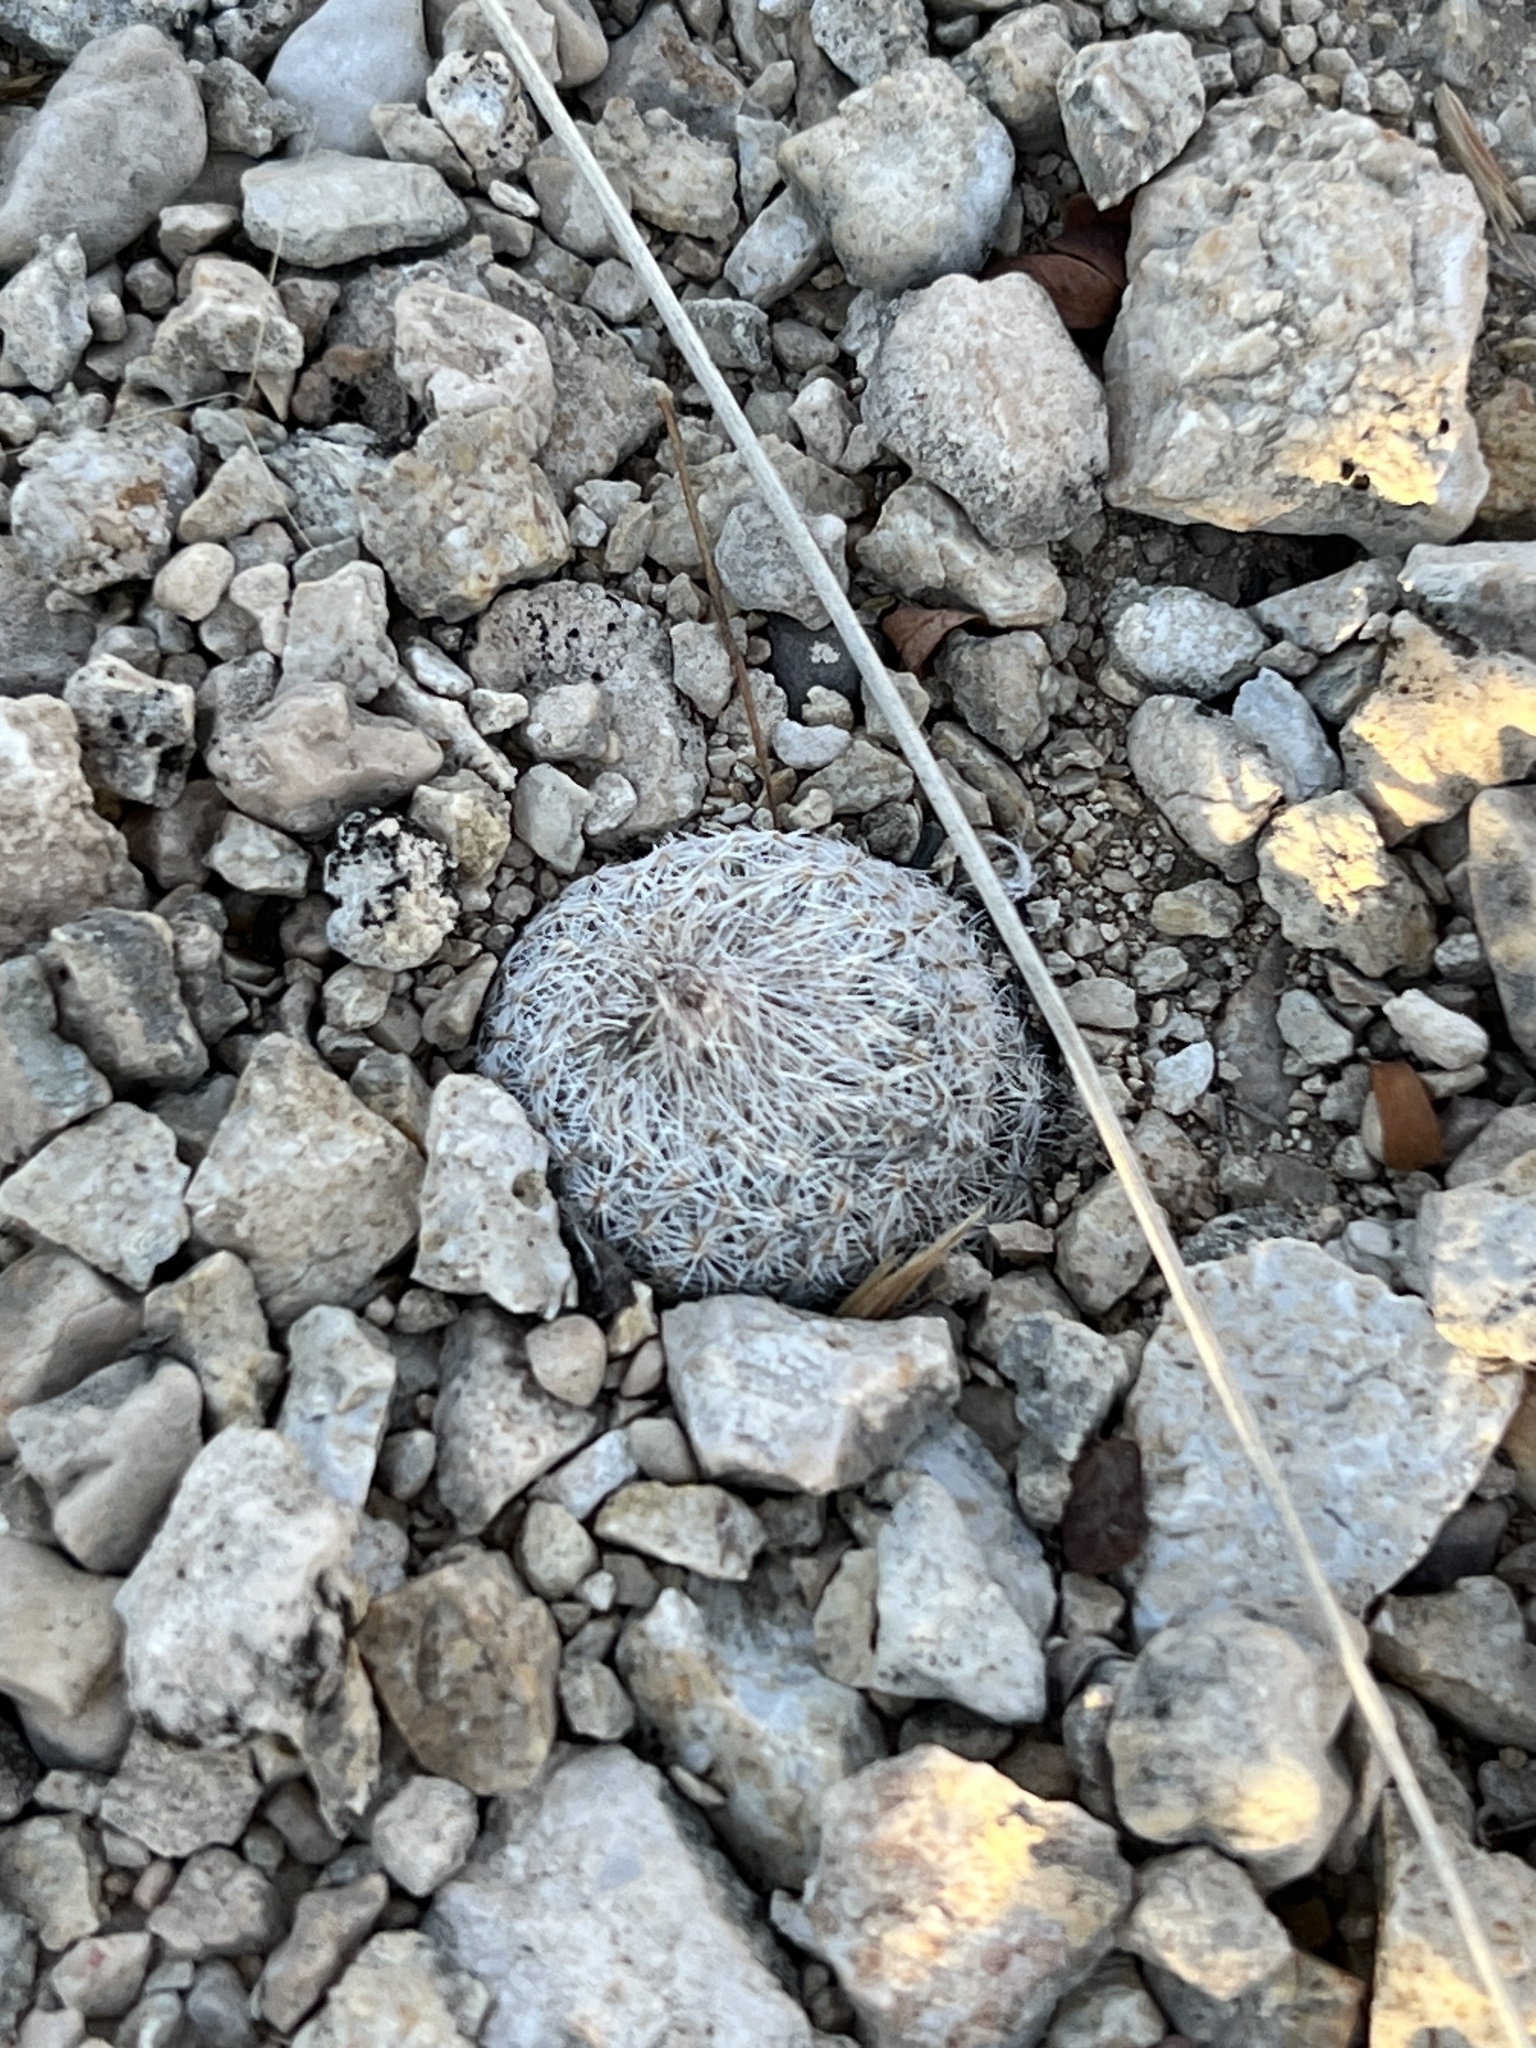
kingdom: Plantae
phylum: Tracheophyta
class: Magnoliopsida
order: Caryophyllales
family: Cactaceae
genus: Epithelantha
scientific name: Epithelantha micromeris
